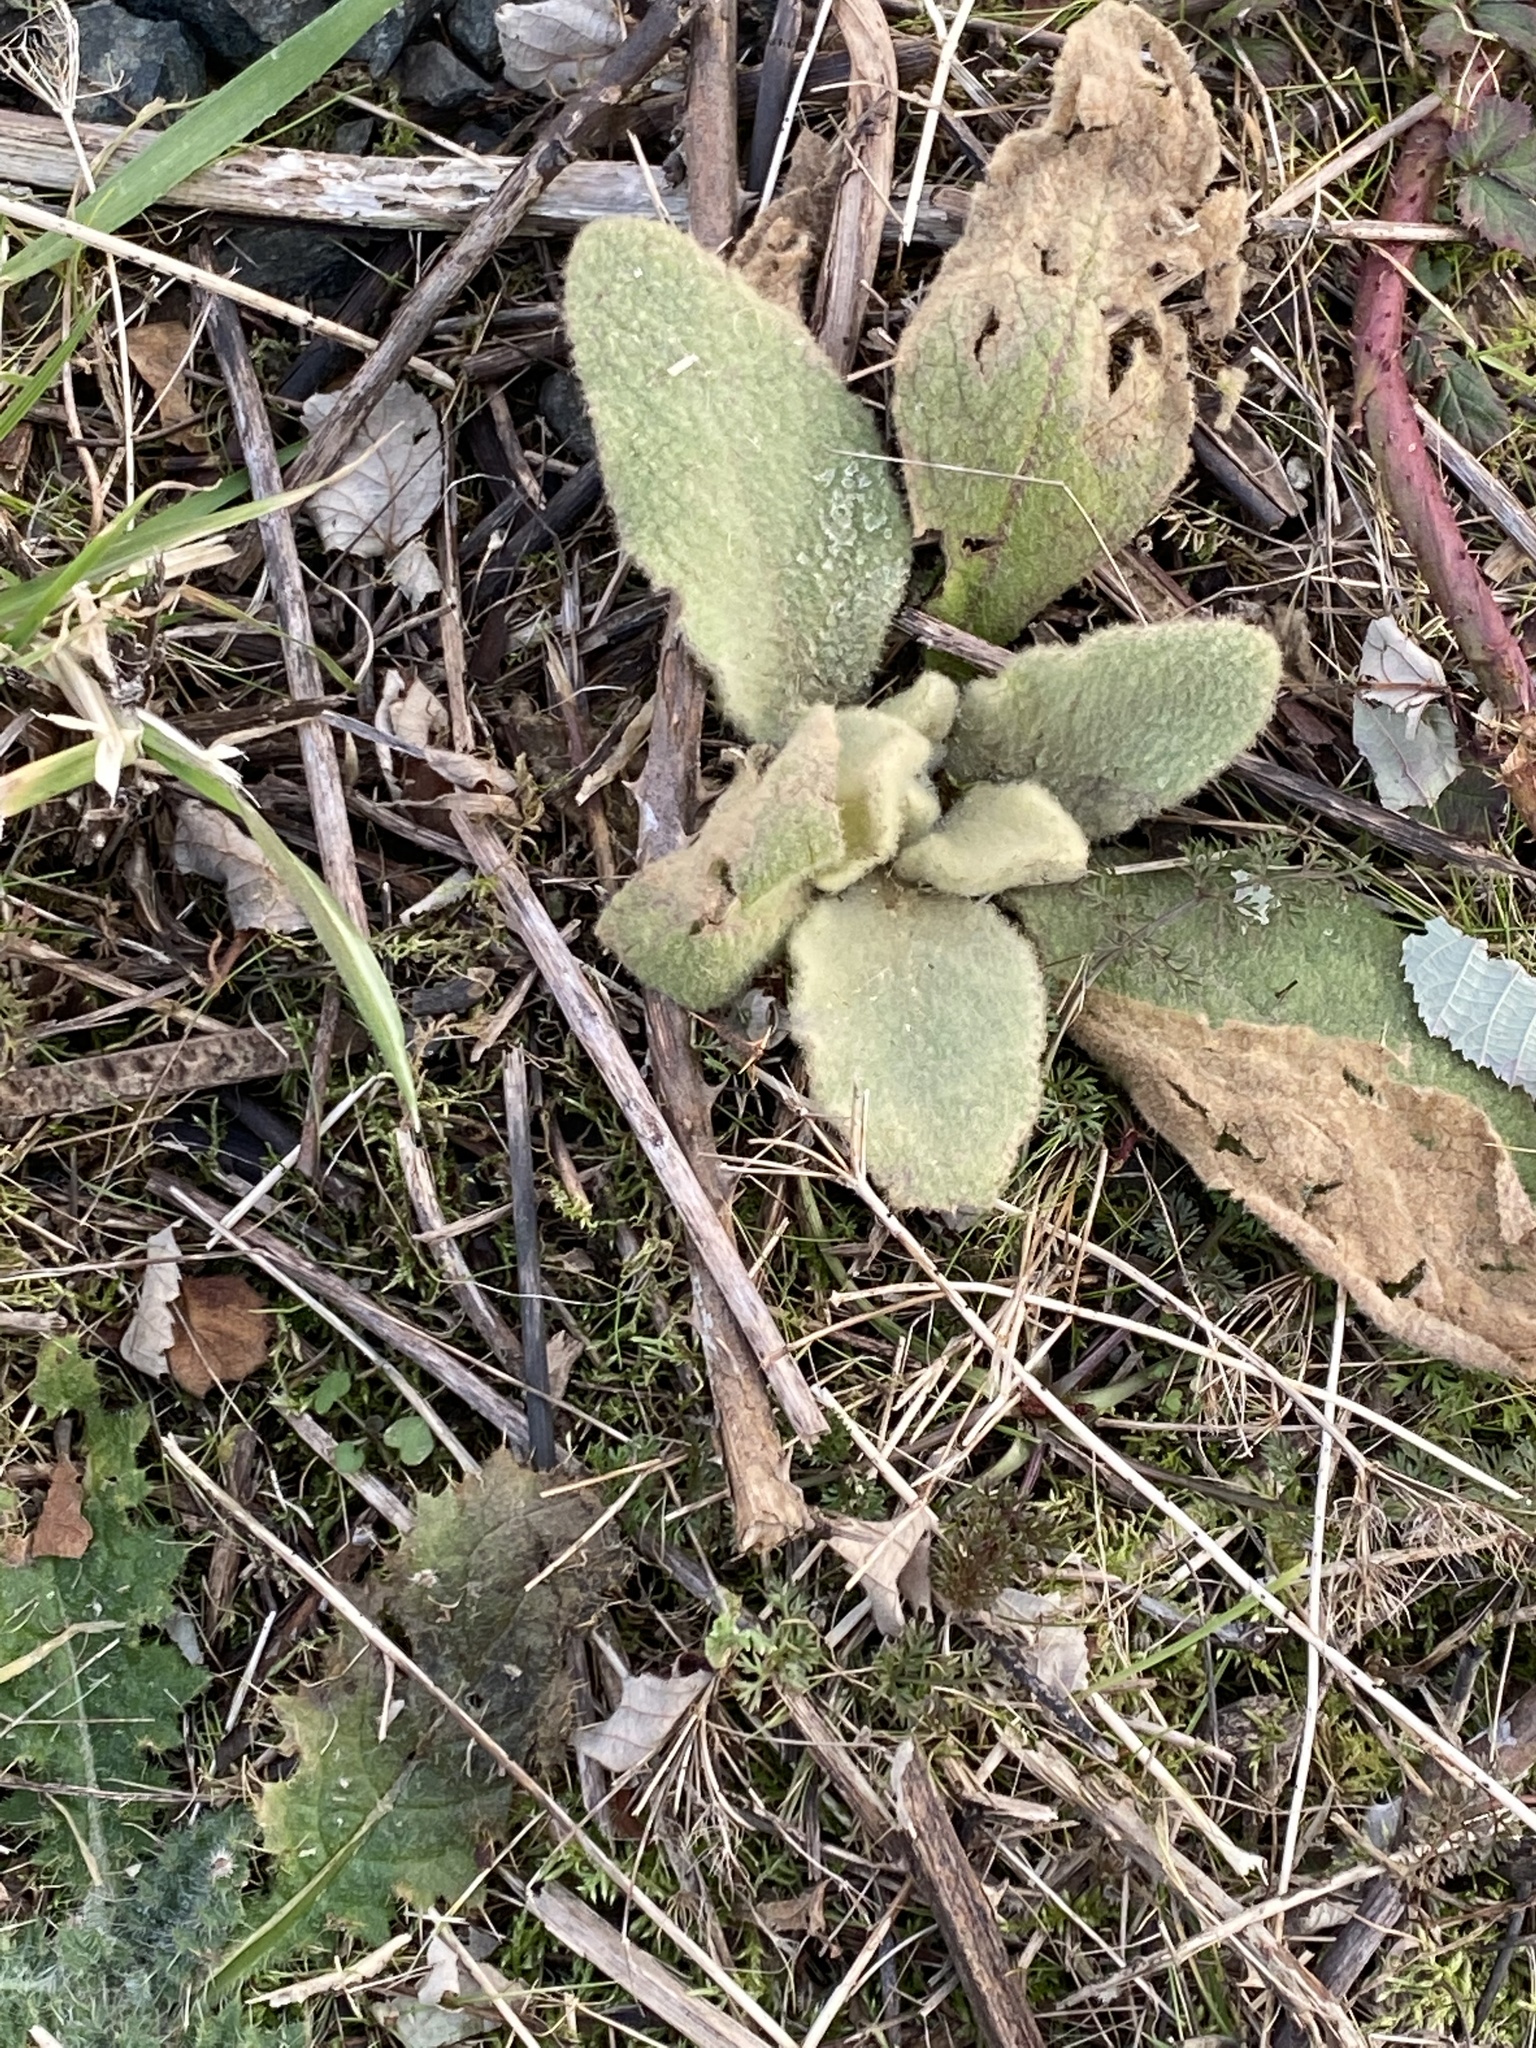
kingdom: Plantae
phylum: Tracheophyta
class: Magnoliopsida
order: Lamiales
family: Scrophulariaceae
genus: Verbascum
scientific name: Verbascum thapsus
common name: Common mullein
